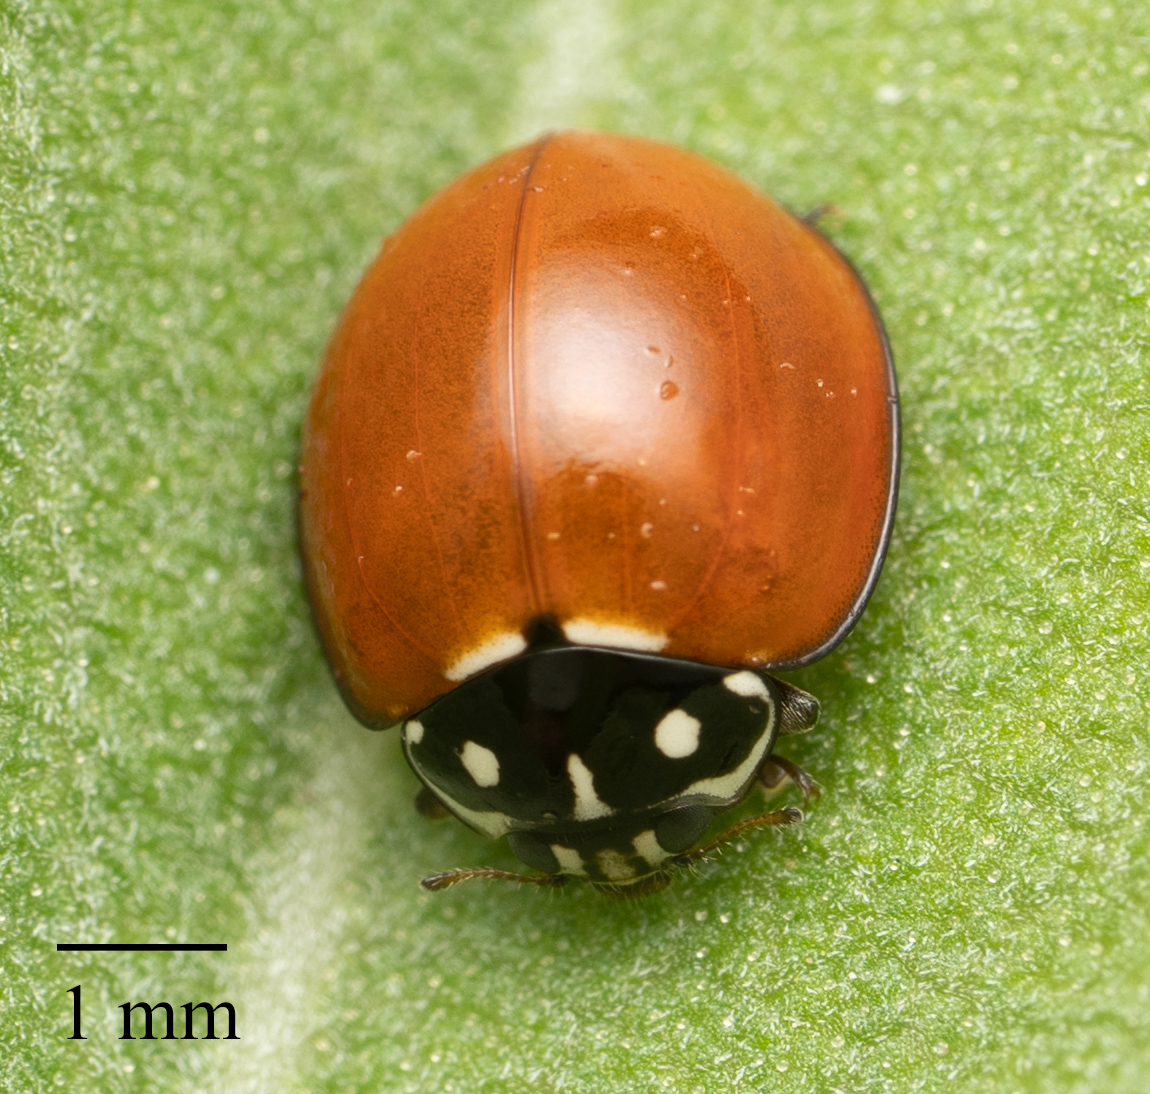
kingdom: Animalia
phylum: Arthropoda
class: Insecta
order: Coleoptera
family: Coccinellidae
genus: Cycloneda
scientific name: Cycloneda sanguinea
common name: Ladybird beetle
